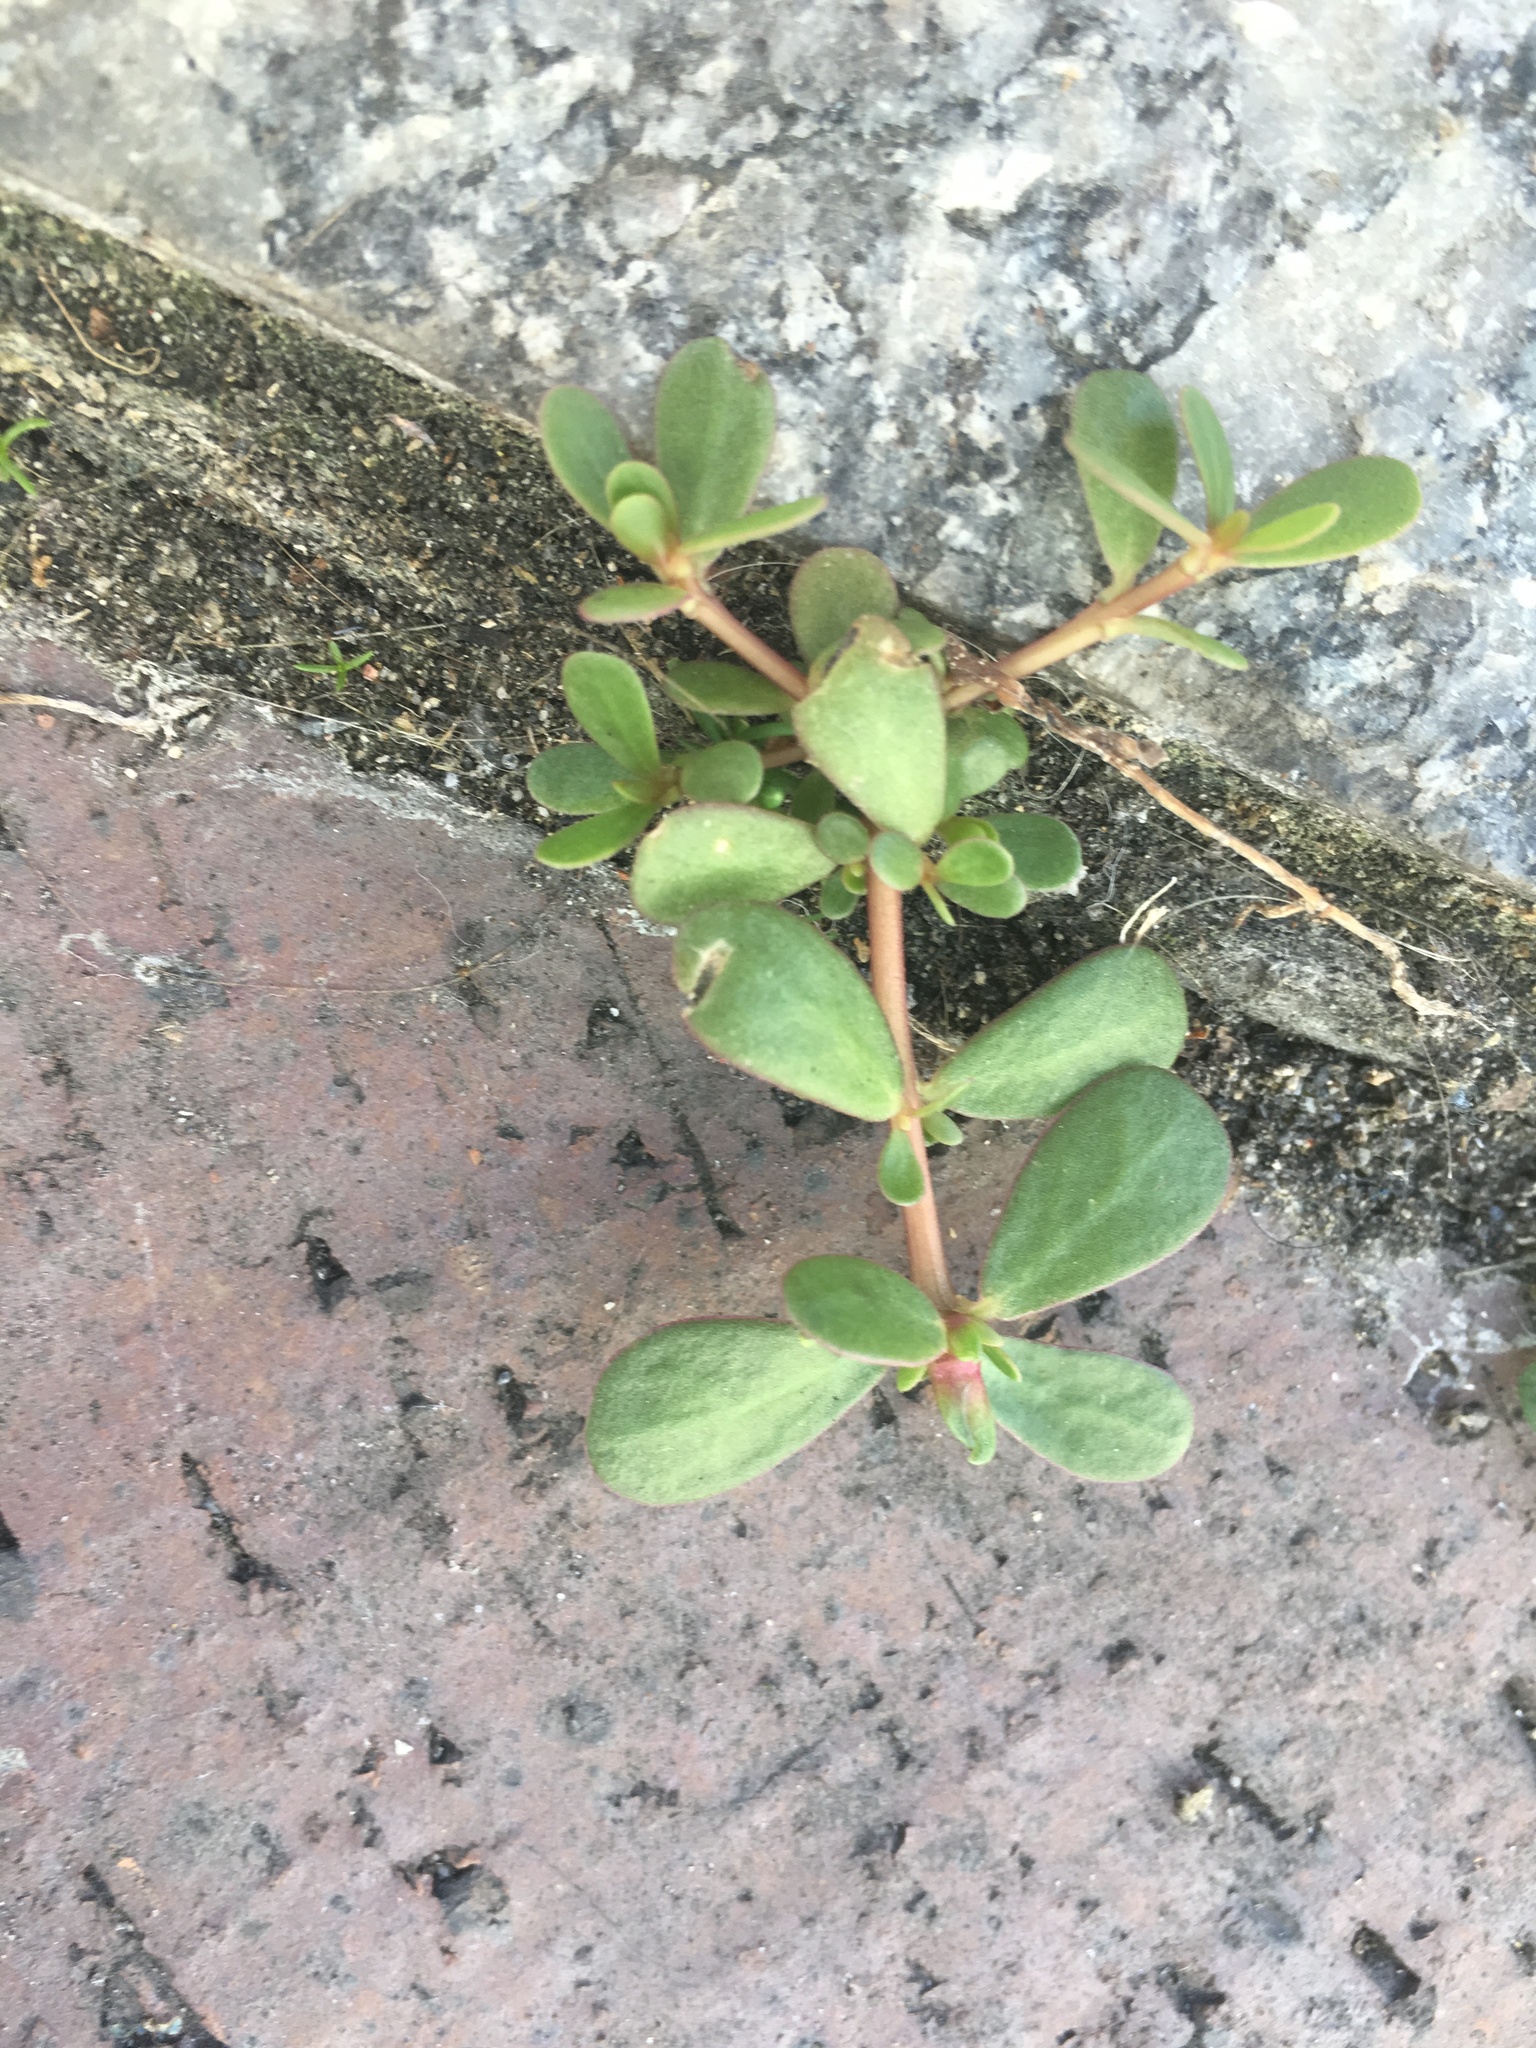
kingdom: Plantae
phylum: Tracheophyta
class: Magnoliopsida
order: Caryophyllales
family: Portulacaceae
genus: Portulaca
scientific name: Portulaca oleracea
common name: Common purslane
